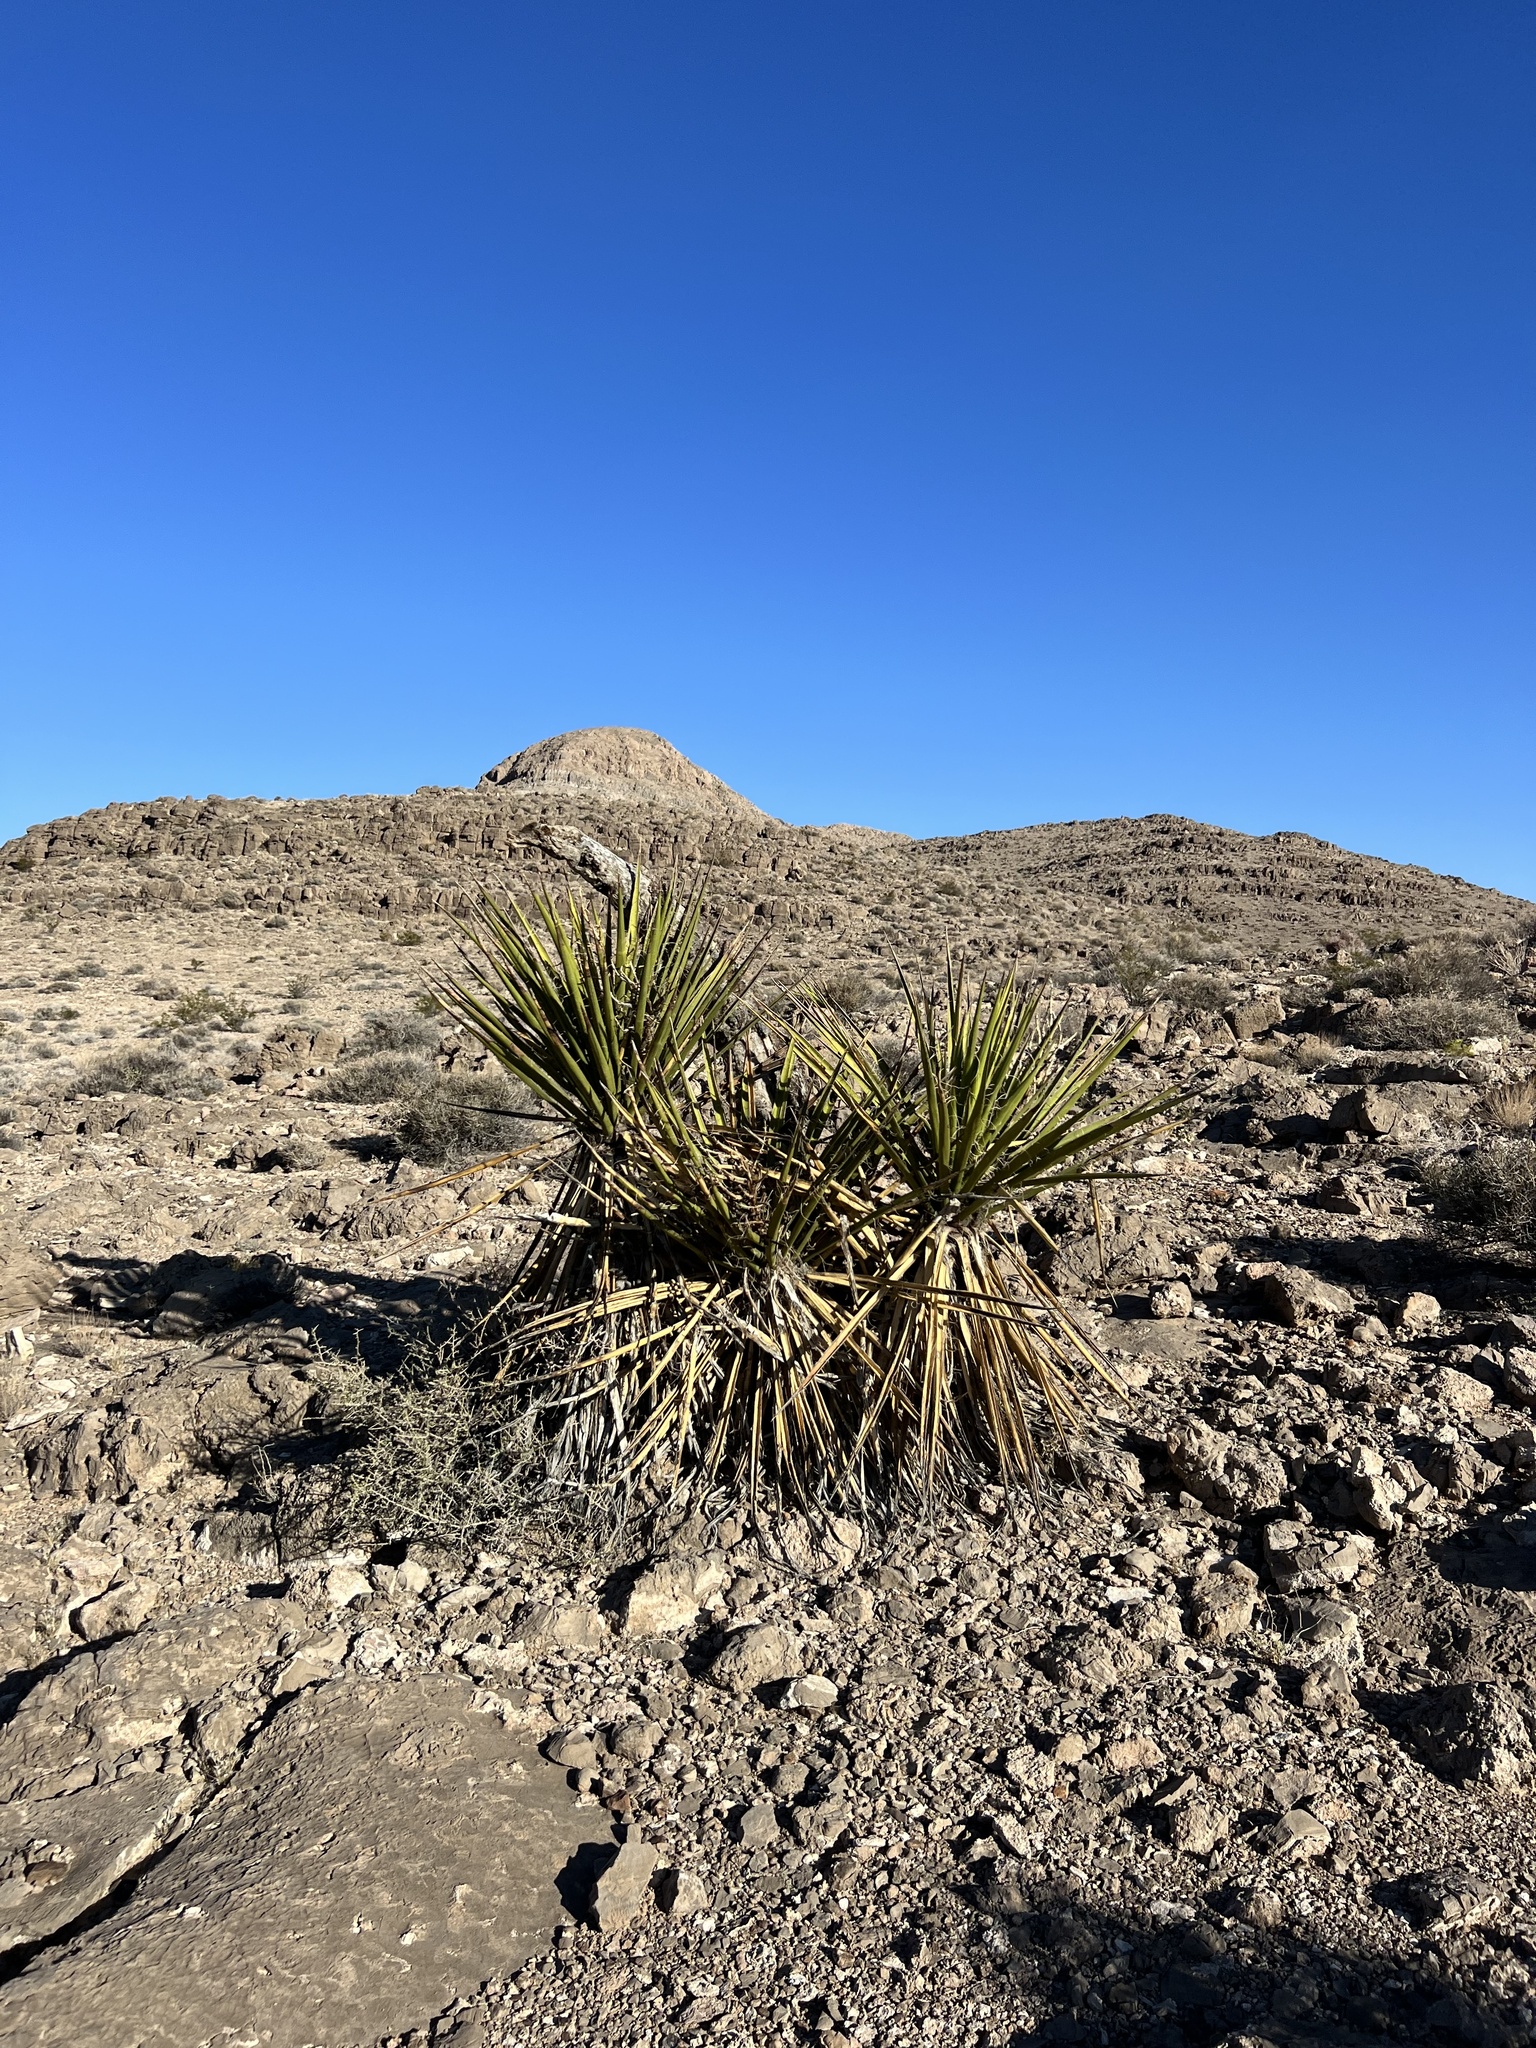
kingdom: Plantae
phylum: Tracheophyta
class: Liliopsida
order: Asparagales
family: Asparagaceae
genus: Yucca
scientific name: Yucca schidigera
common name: Mojave yucca
